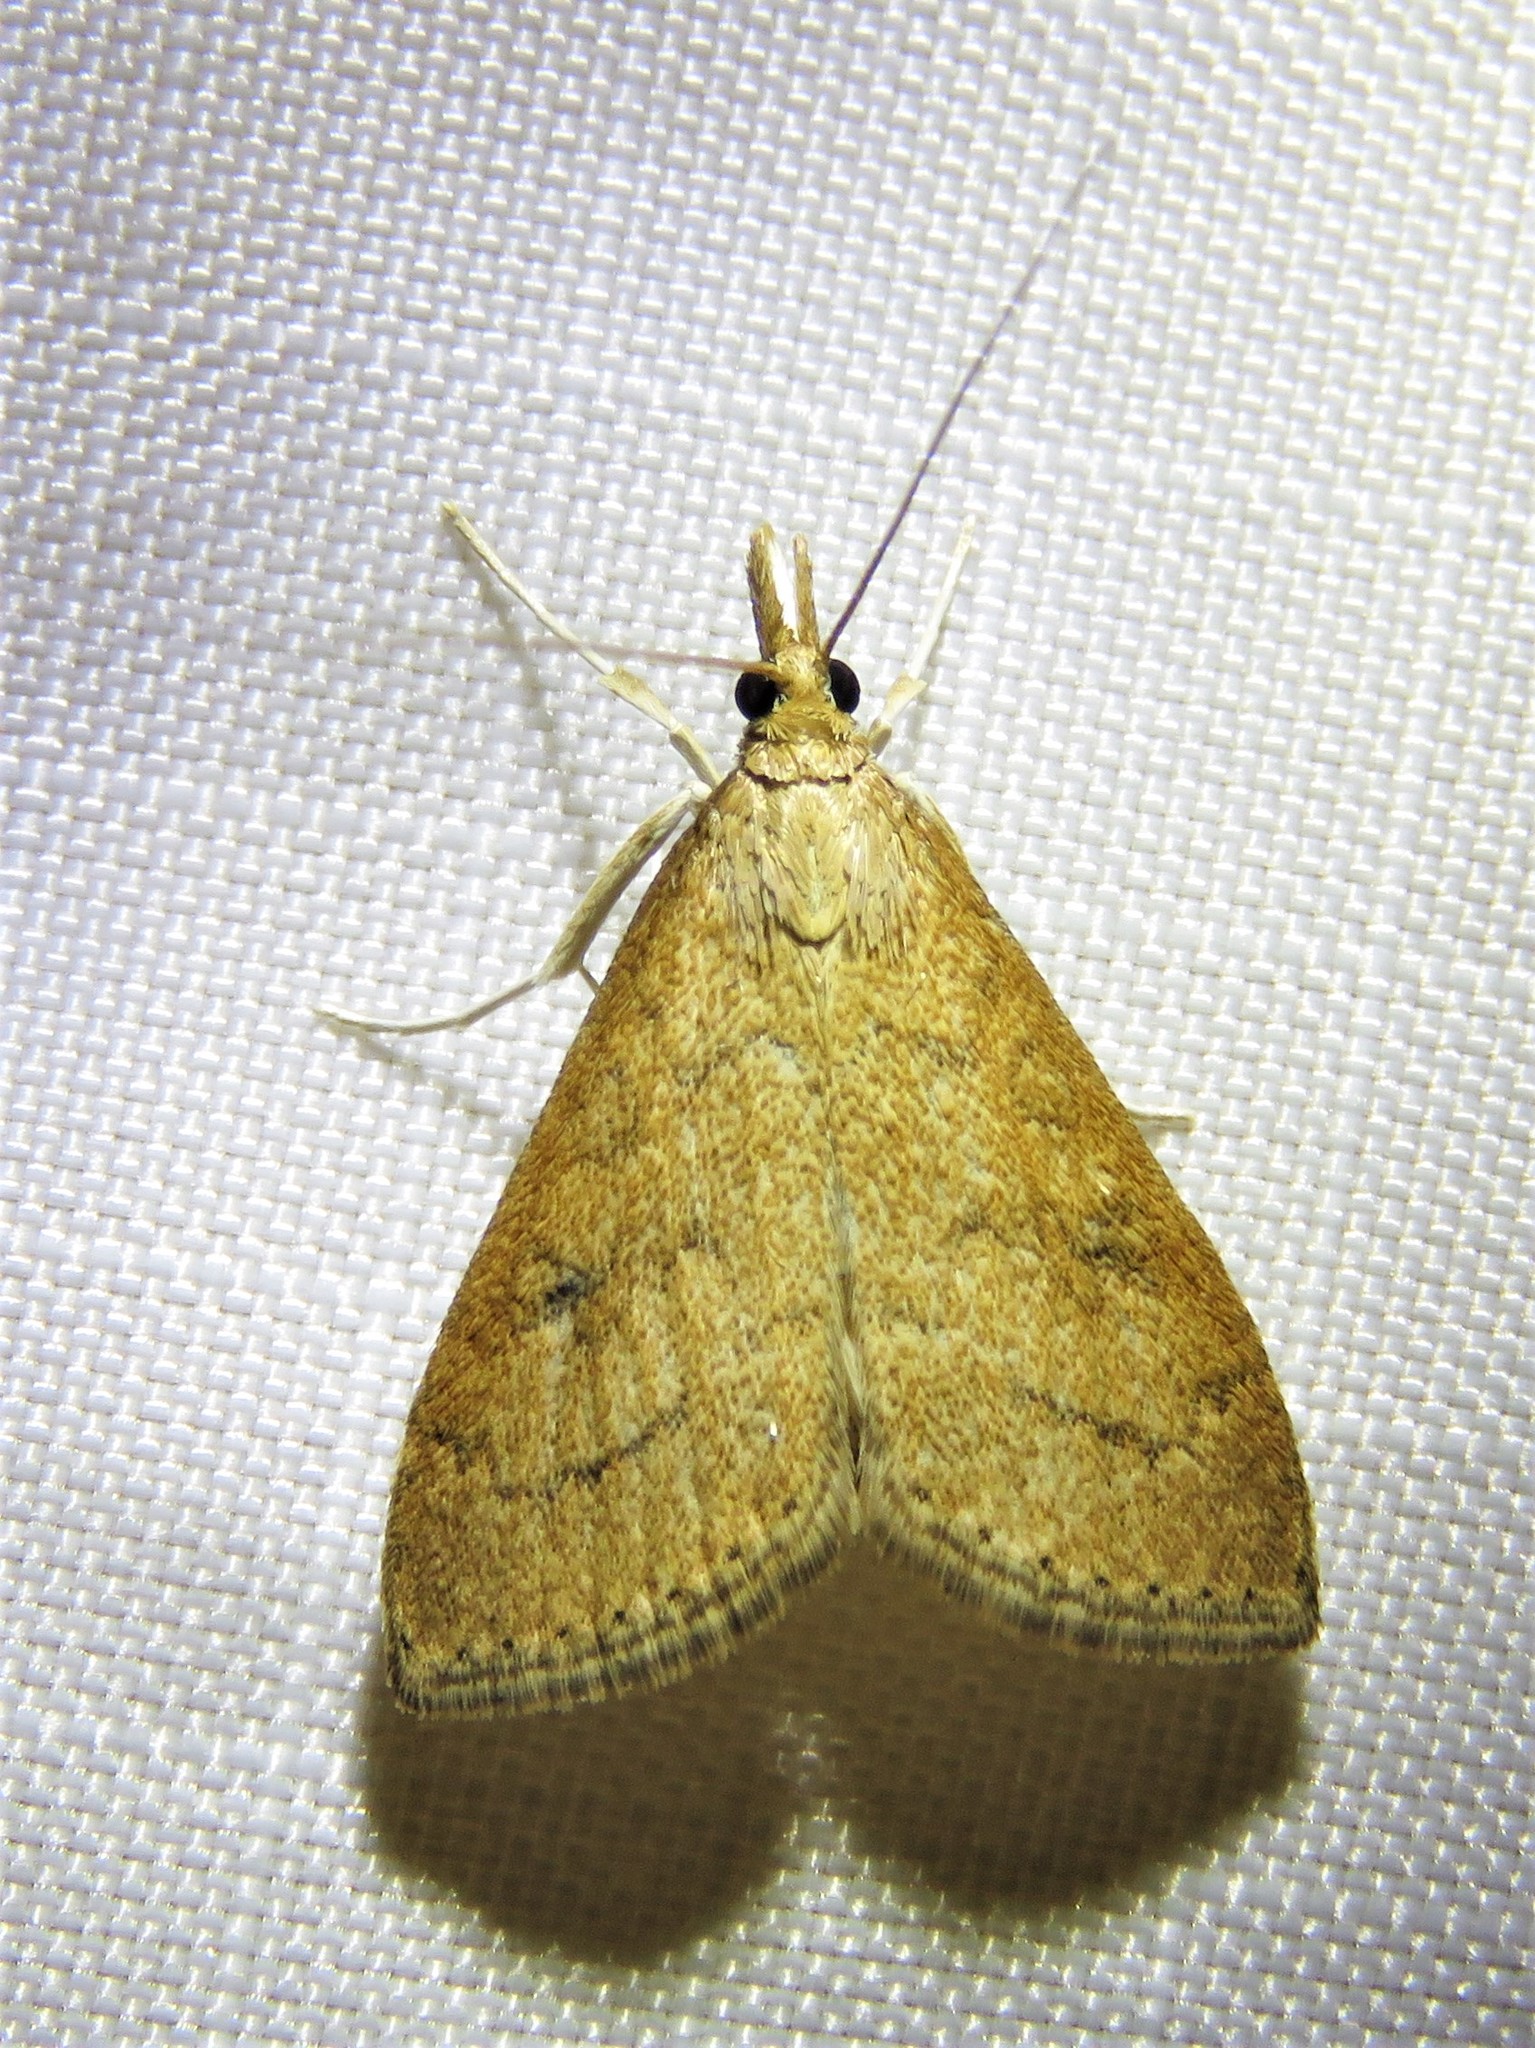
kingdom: Animalia
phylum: Arthropoda
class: Insecta
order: Lepidoptera
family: Crambidae
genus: Udea
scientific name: Udea rubigalis
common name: Celery leaftier moth
